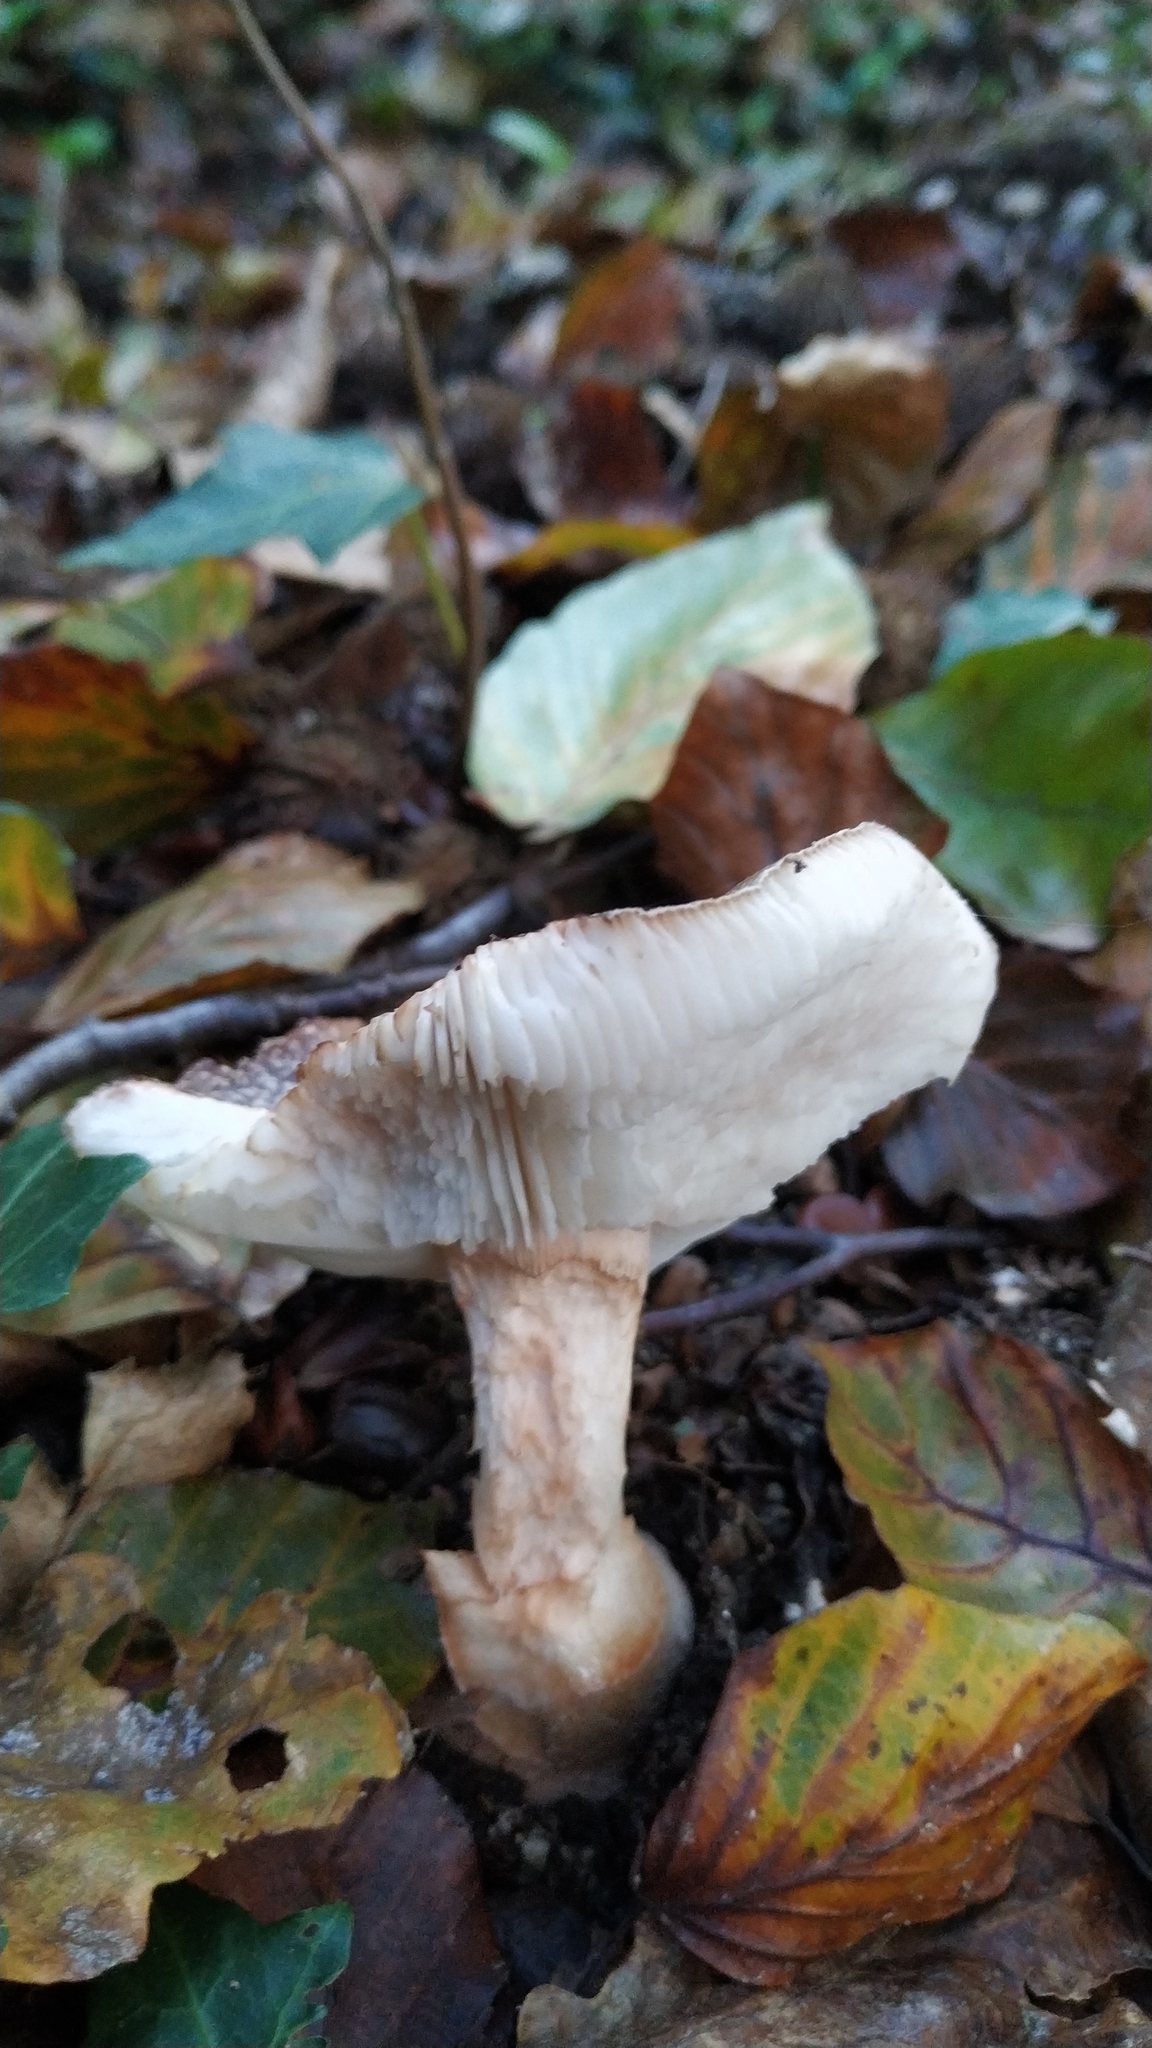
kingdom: Fungi
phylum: Basidiomycota
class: Agaricomycetes
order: Agaricales
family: Amanitaceae
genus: Amanita
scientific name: Amanita rubescens
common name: Blusher
